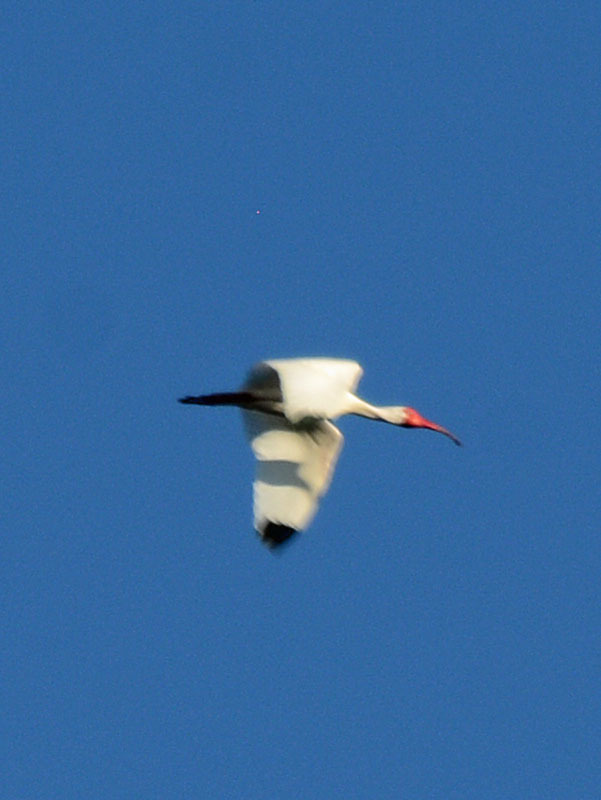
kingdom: Animalia
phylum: Chordata
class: Aves
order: Pelecaniformes
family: Threskiornithidae
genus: Eudocimus
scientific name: Eudocimus albus
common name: White ibis
